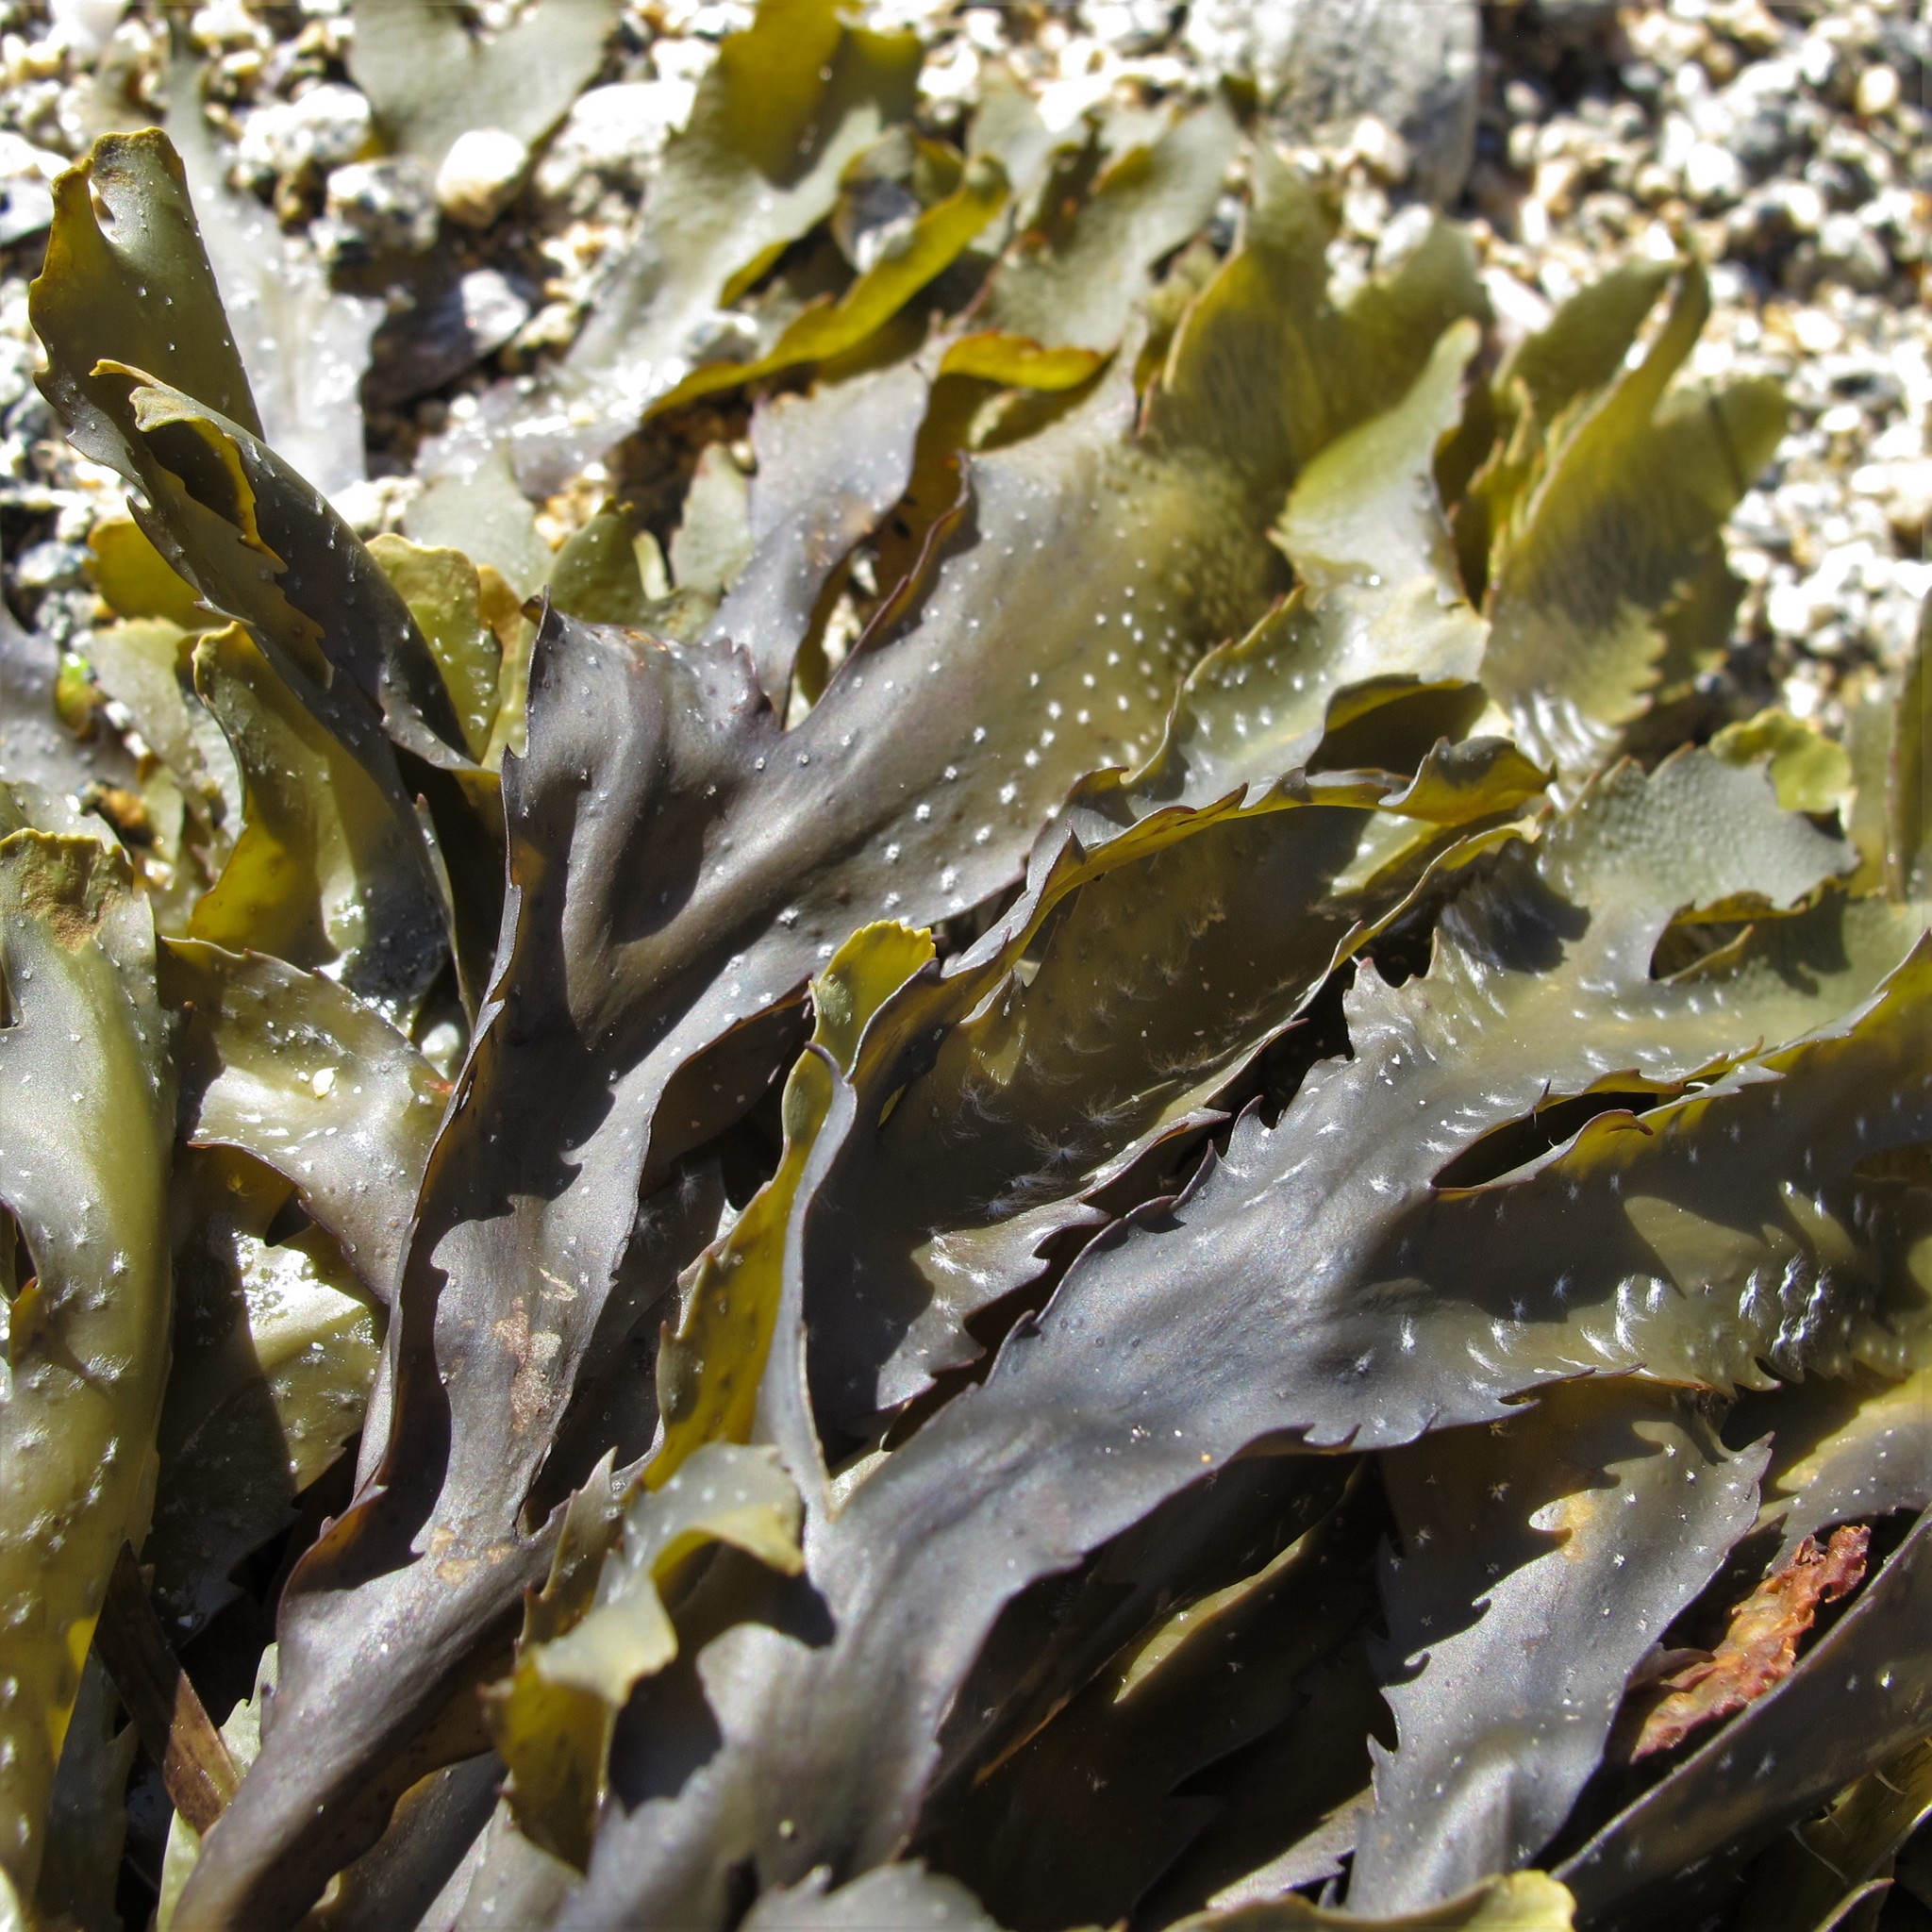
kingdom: Chromista
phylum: Ochrophyta
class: Phaeophyceae
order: Fucales
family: Fucaceae
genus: Fucus
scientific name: Fucus serratus
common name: Toothed wrack
